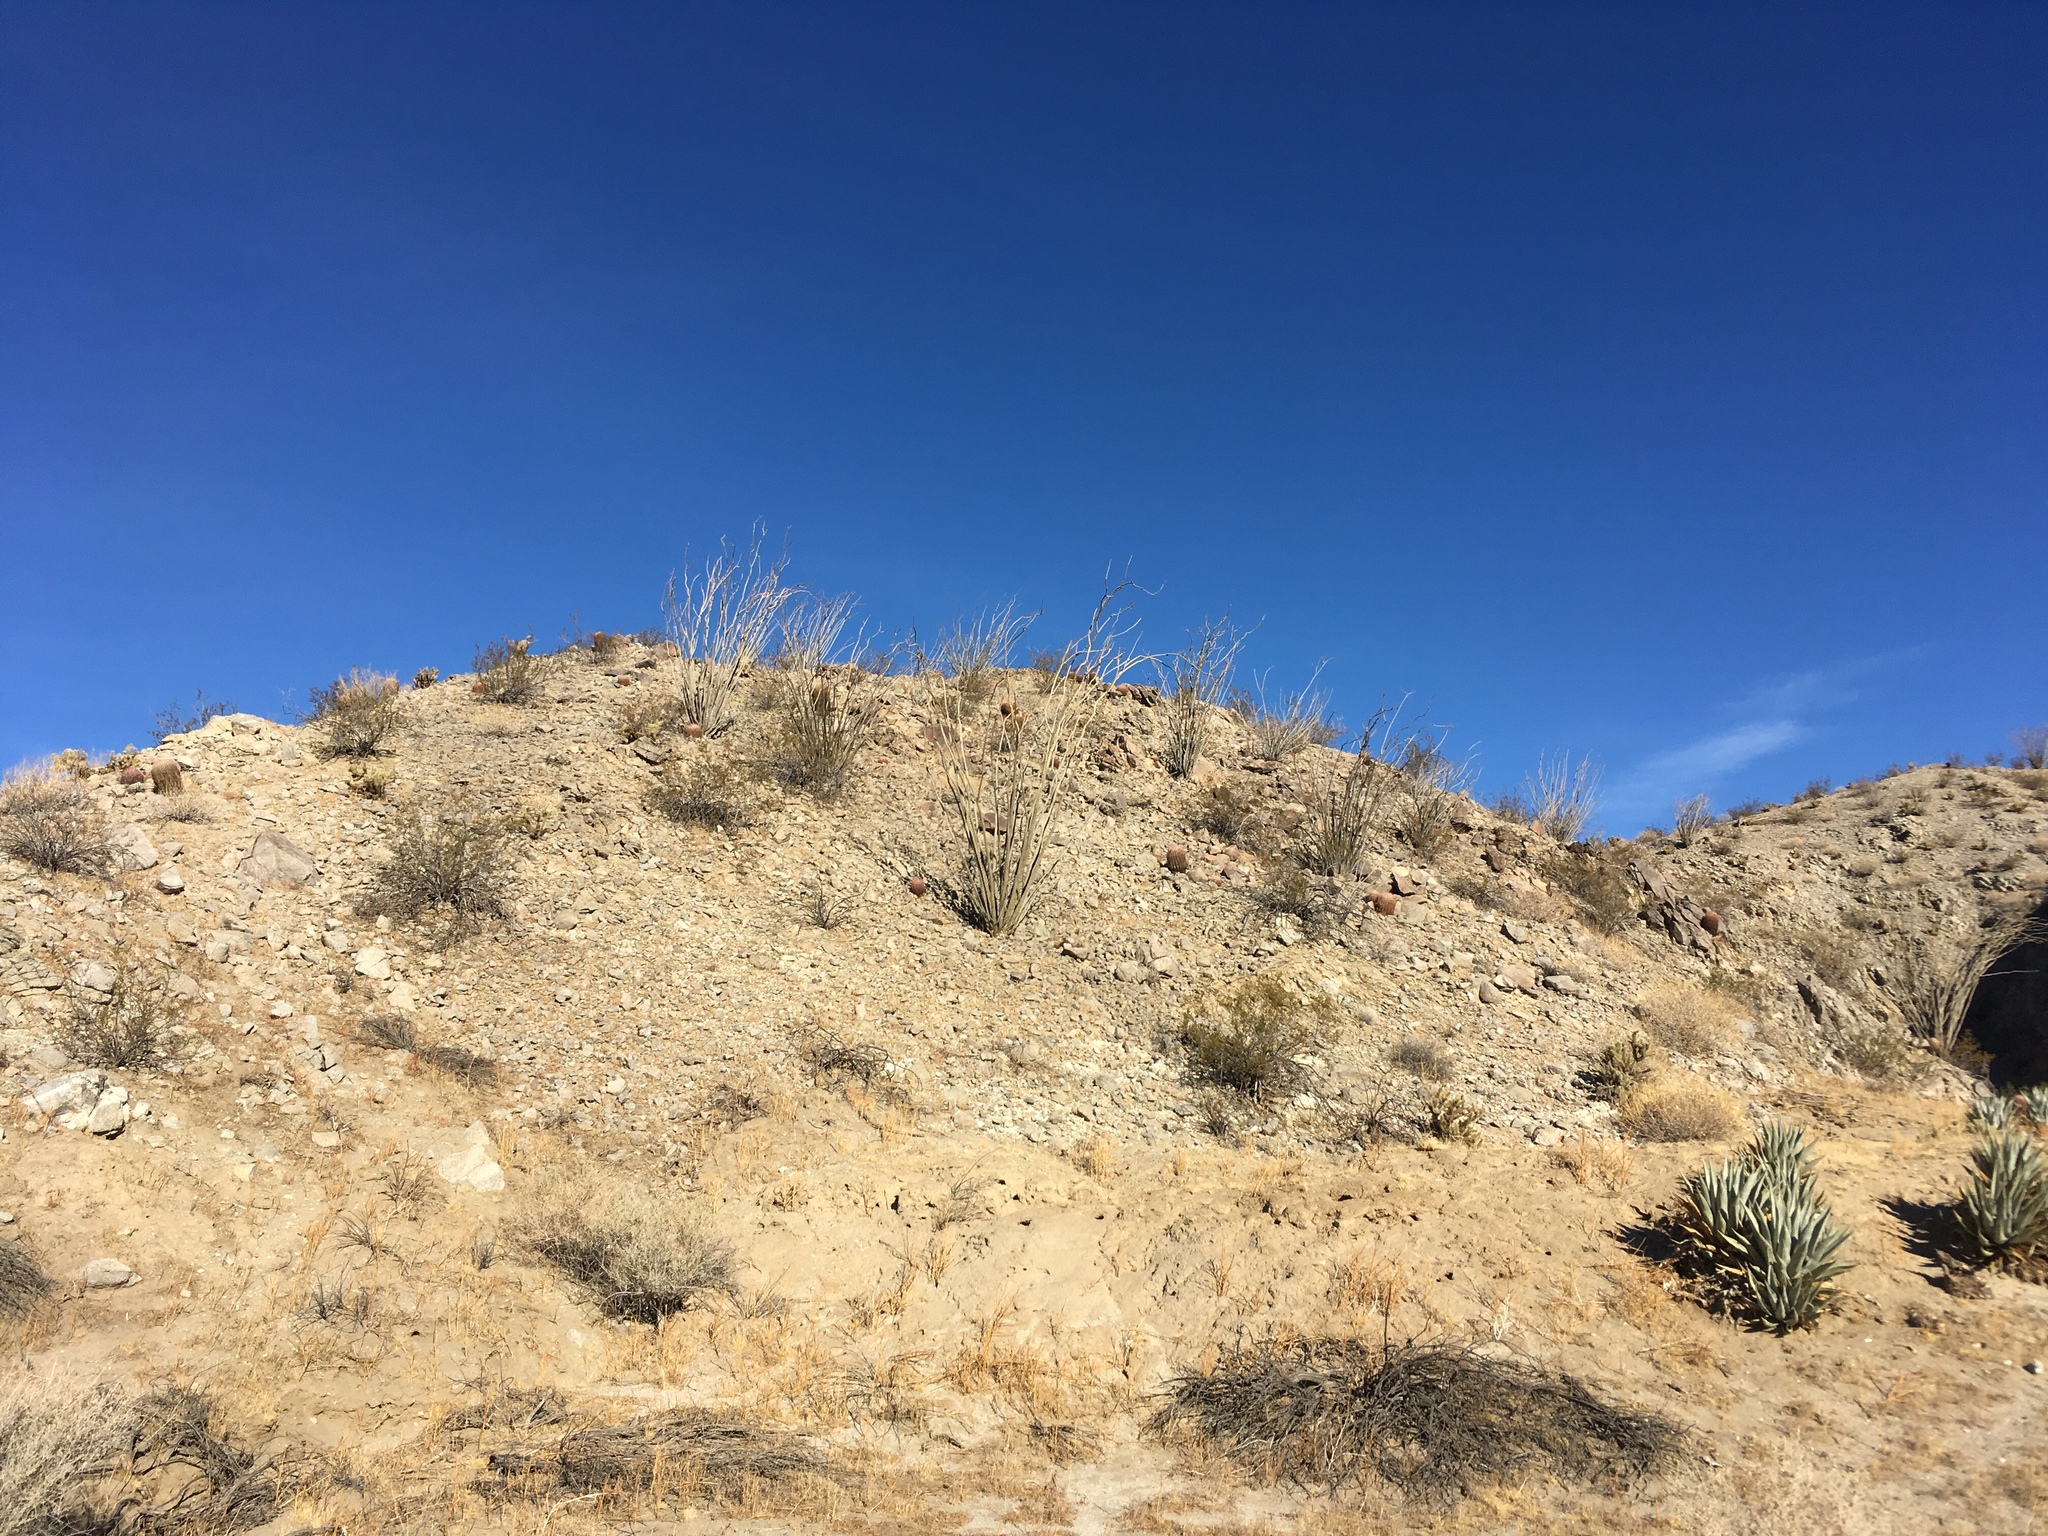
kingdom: Plantae
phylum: Tracheophyta
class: Magnoliopsida
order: Ericales
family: Fouquieriaceae
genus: Fouquieria
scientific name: Fouquieria splendens
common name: Vine-cactus
